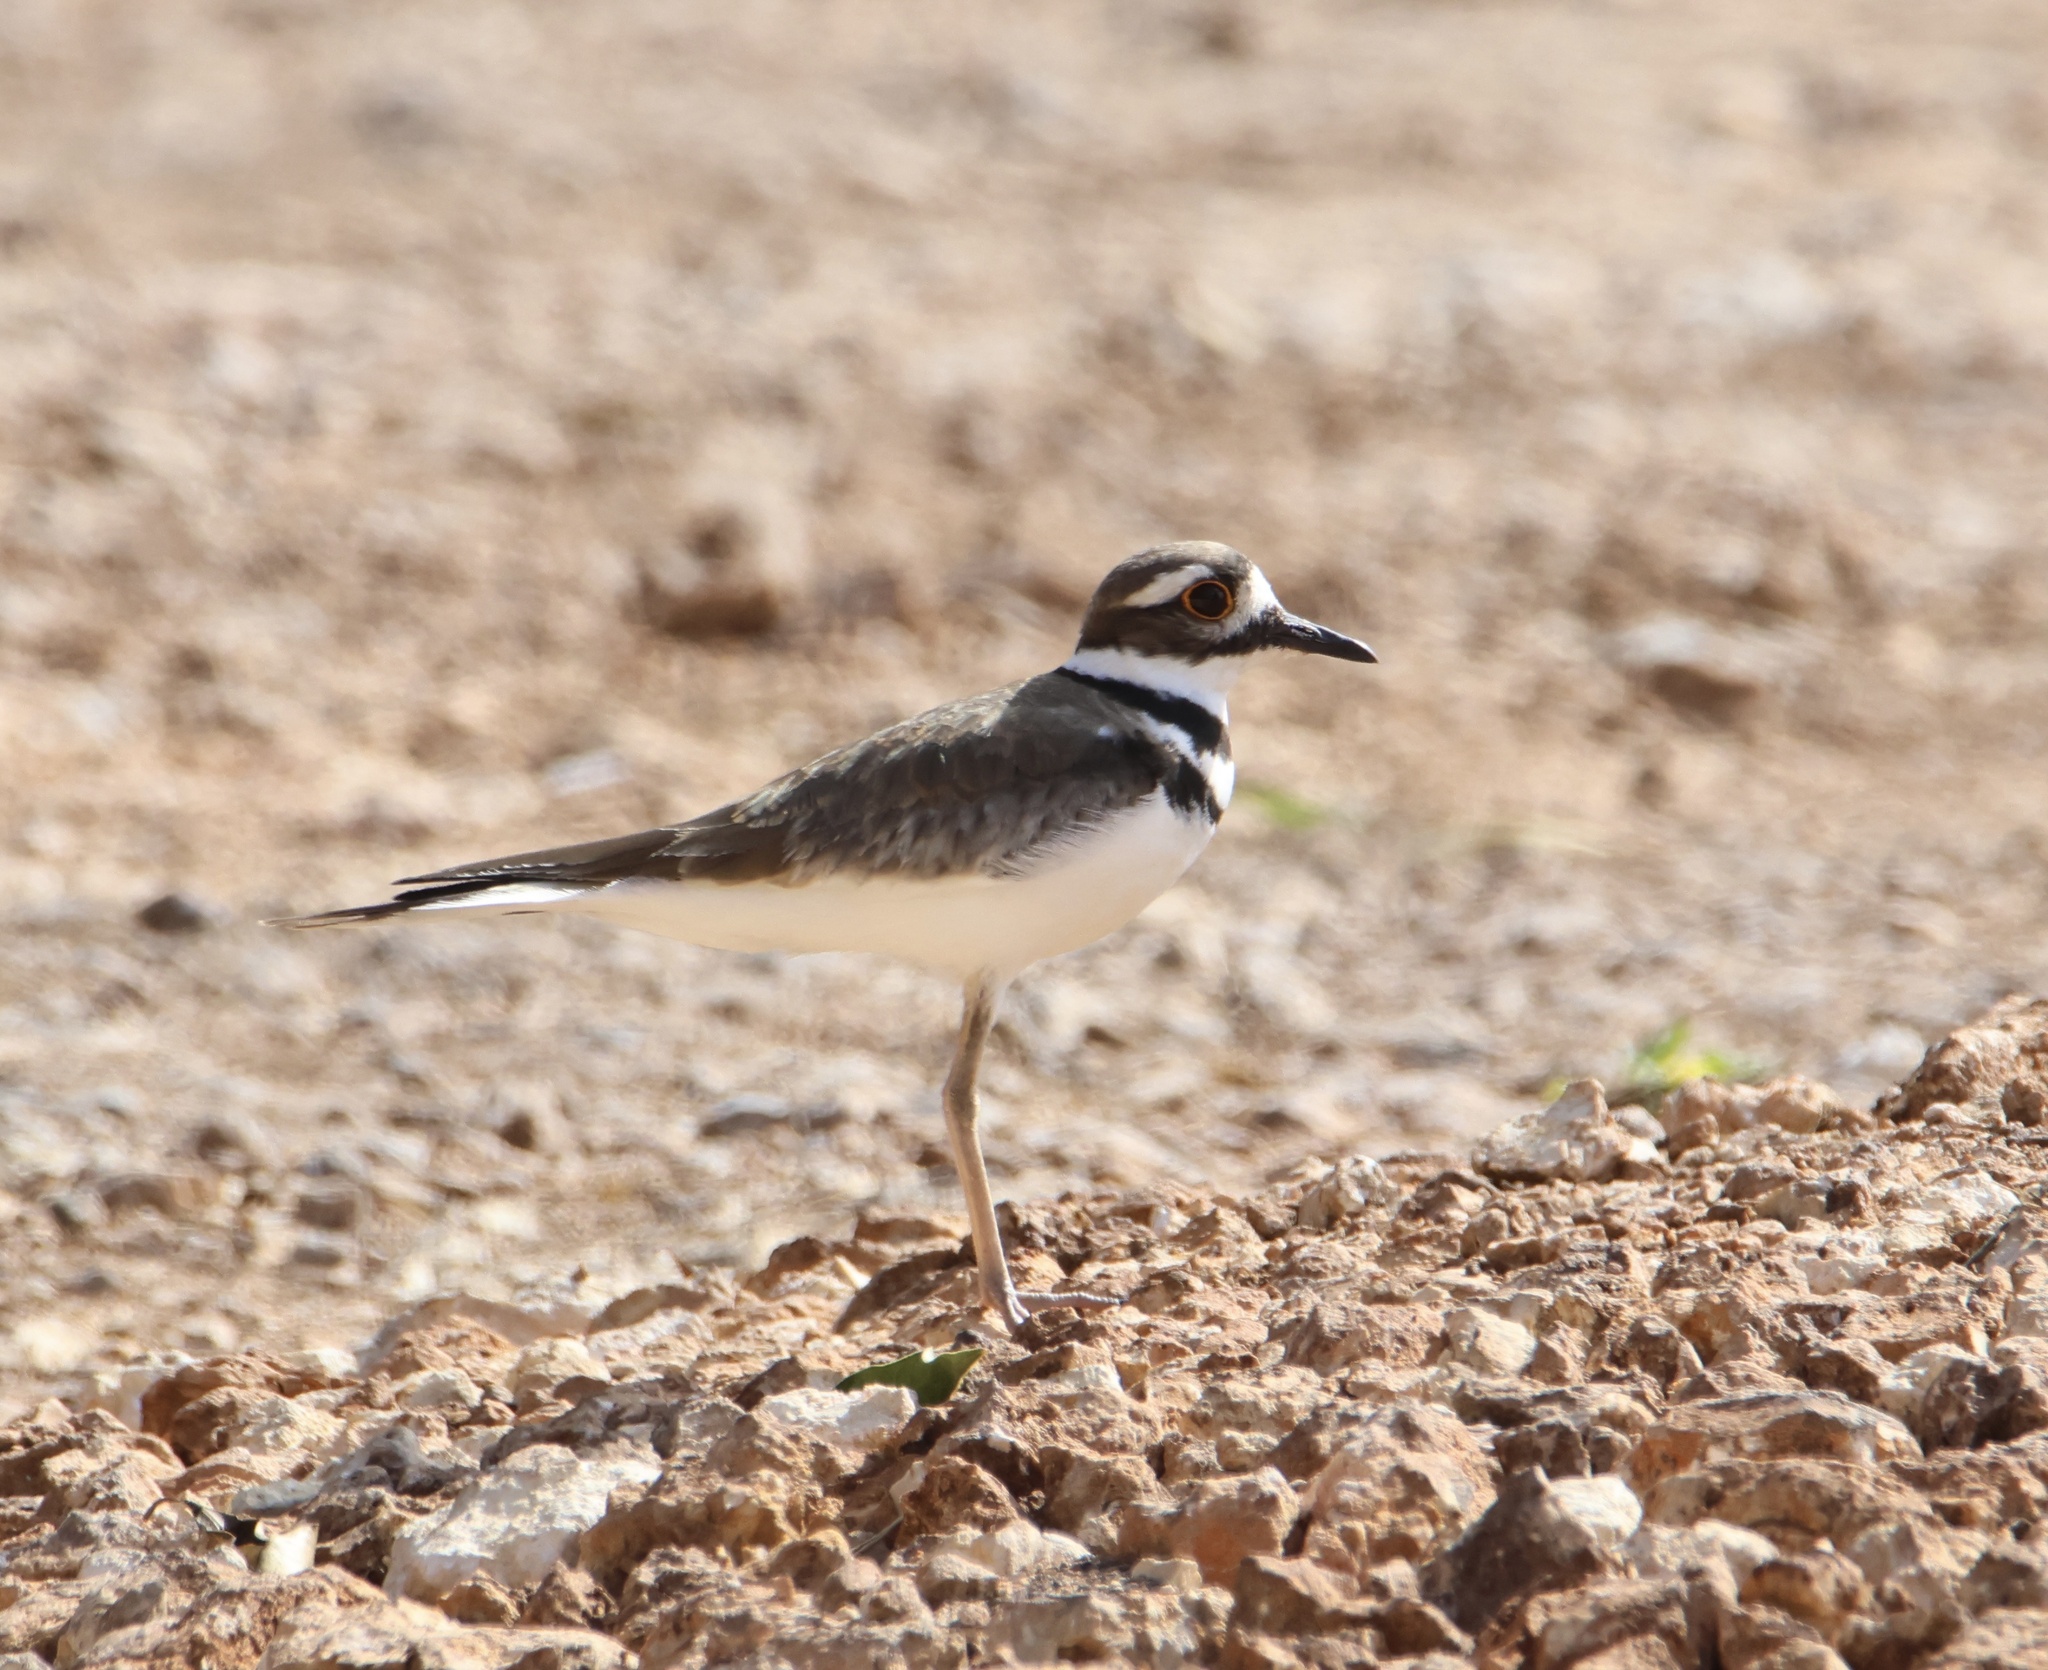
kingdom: Animalia
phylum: Chordata
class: Aves
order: Charadriiformes
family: Charadriidae
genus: Charadrius
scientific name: Charadrius vociferus
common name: Killdeer
